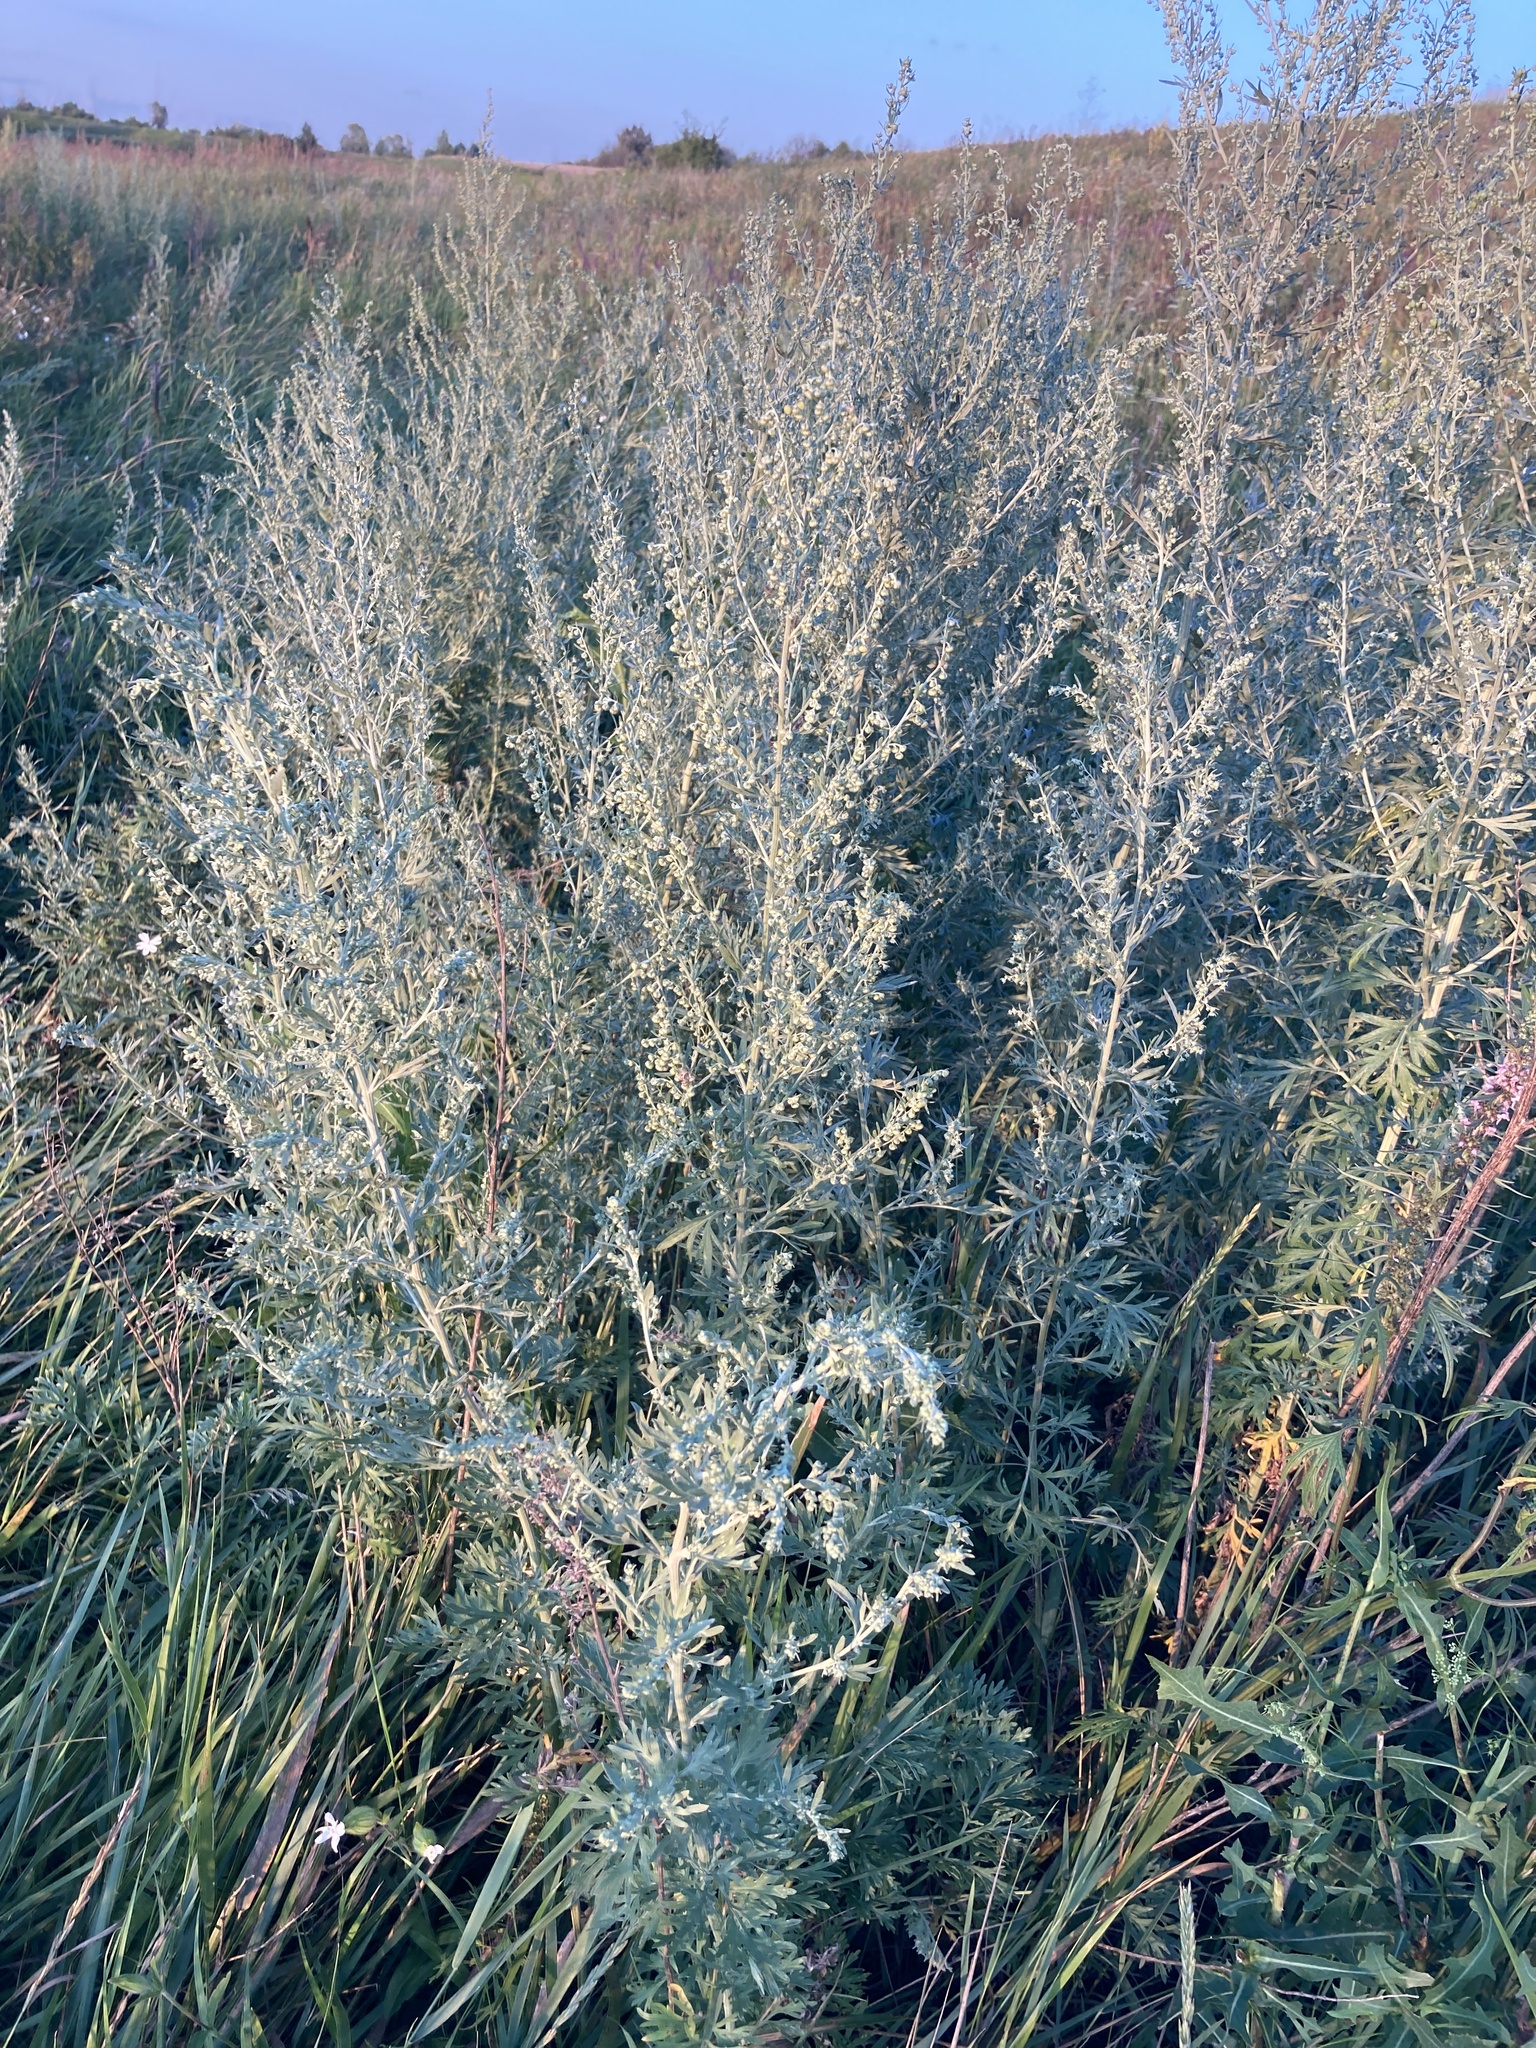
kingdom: Plantae
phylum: Tracheophyta
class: Magnoliopsida
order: Asterales
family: Asteraceae
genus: Artemisia
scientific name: Artemisia absinthium
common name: Wormwood
